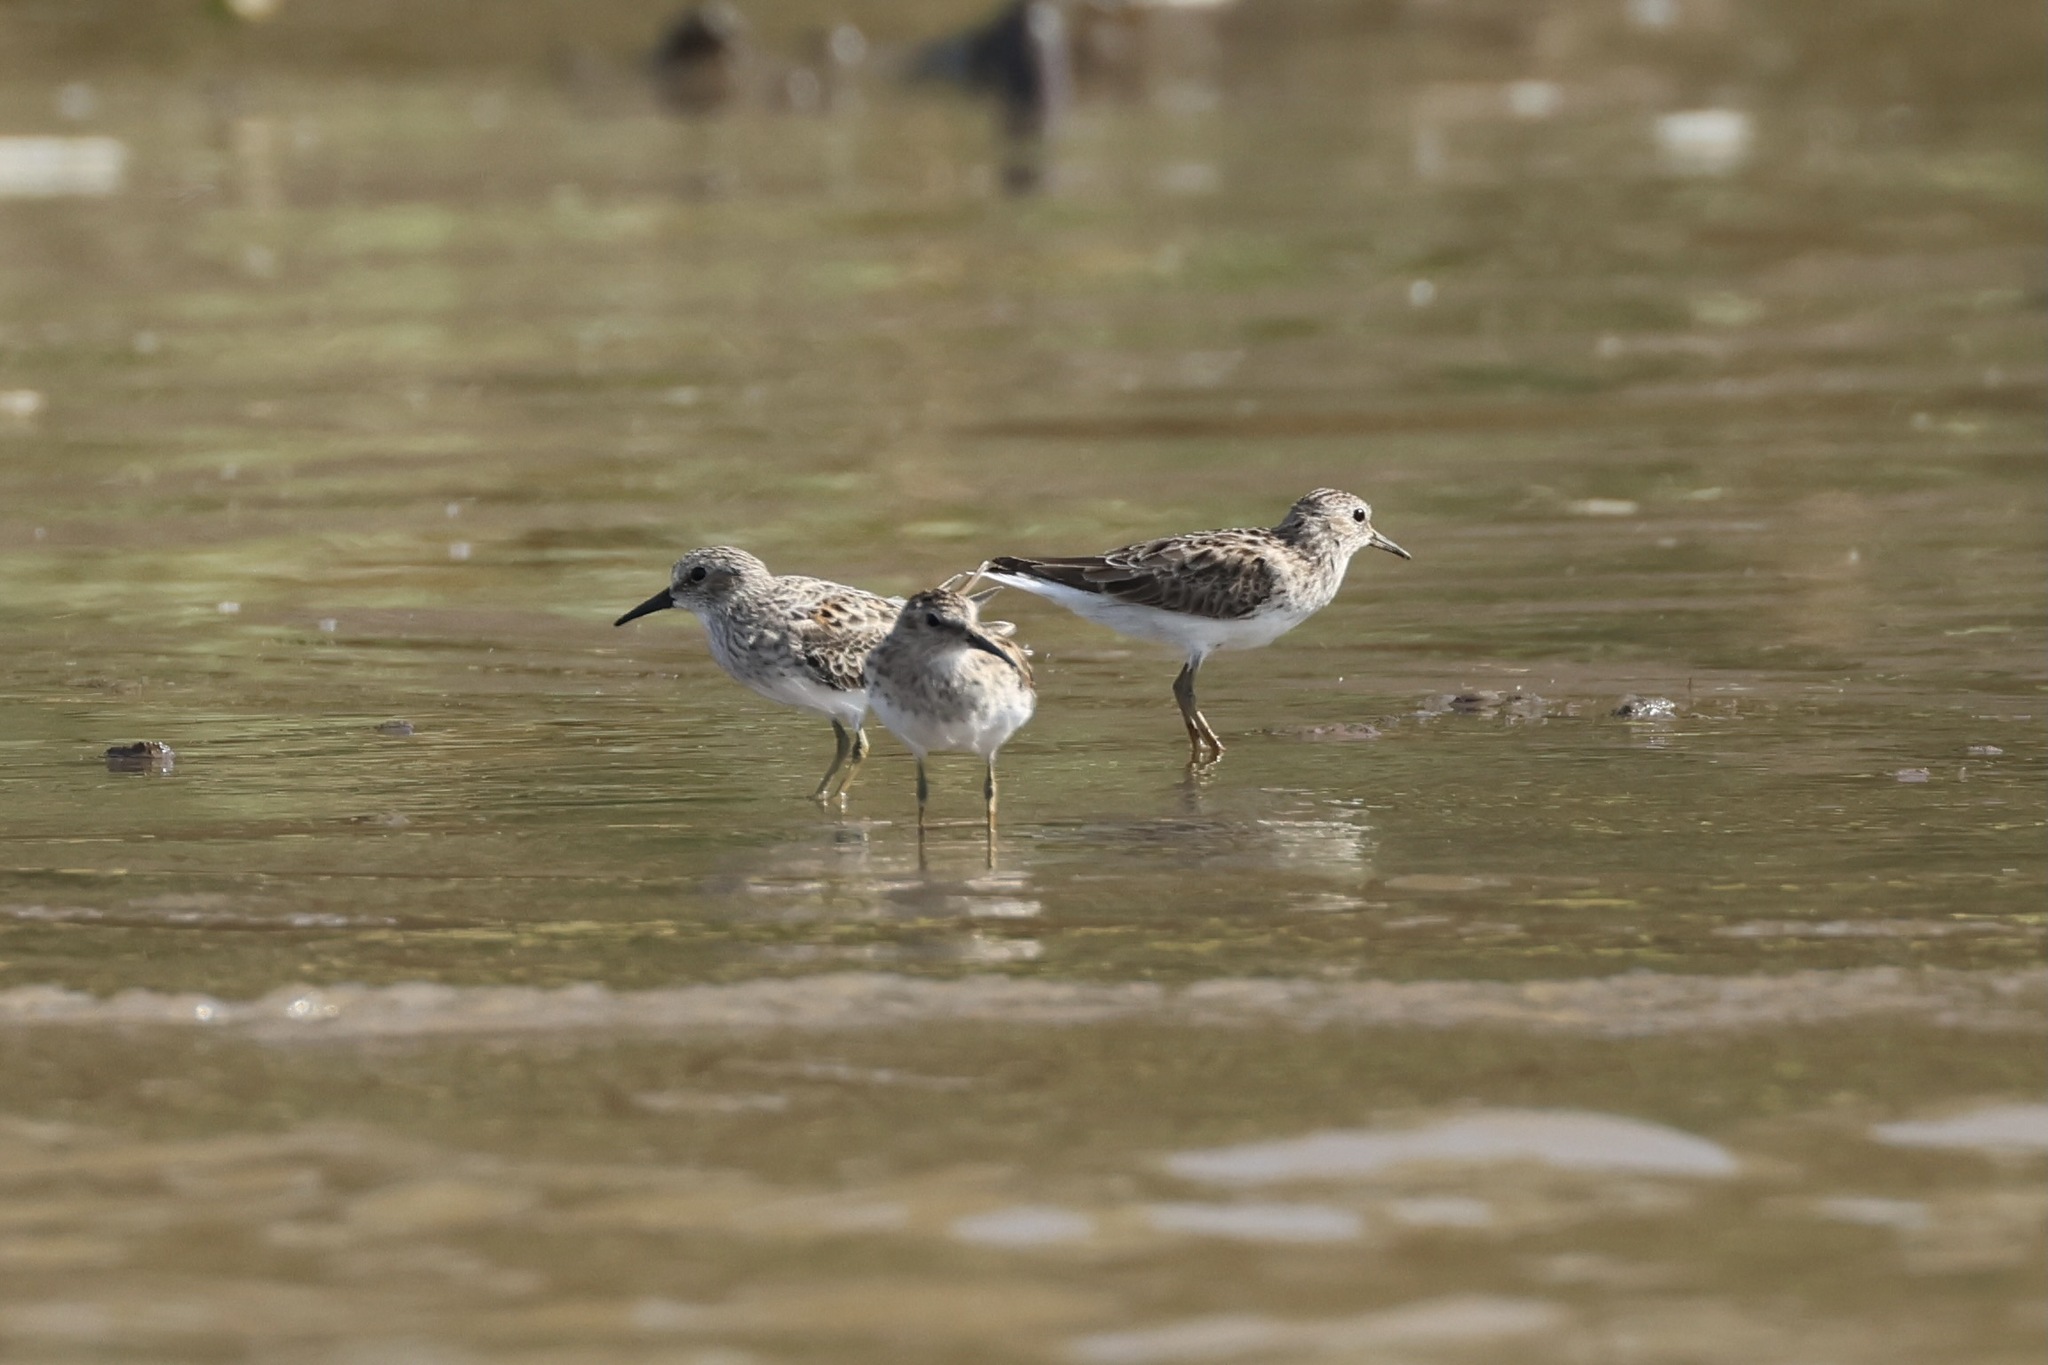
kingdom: Animalia
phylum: Chordata
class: Aves
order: Charadriiformes
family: Scolopacidae
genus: Calidris
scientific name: Calidris minutilla
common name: Least sandpiper
